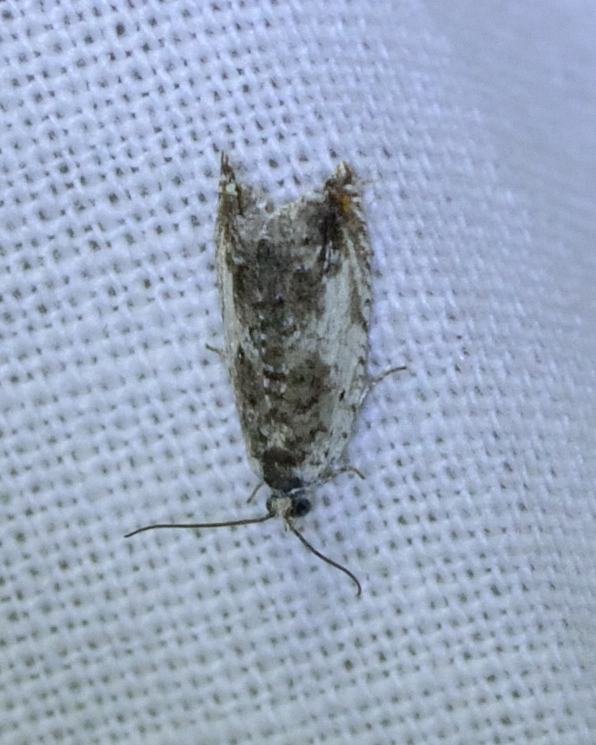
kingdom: Animalia
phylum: Arthropoda
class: Insecta
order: Lepidoptera
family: Tortricidae
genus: Ancylis
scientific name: Ancylis laetana
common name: Aspen roller
